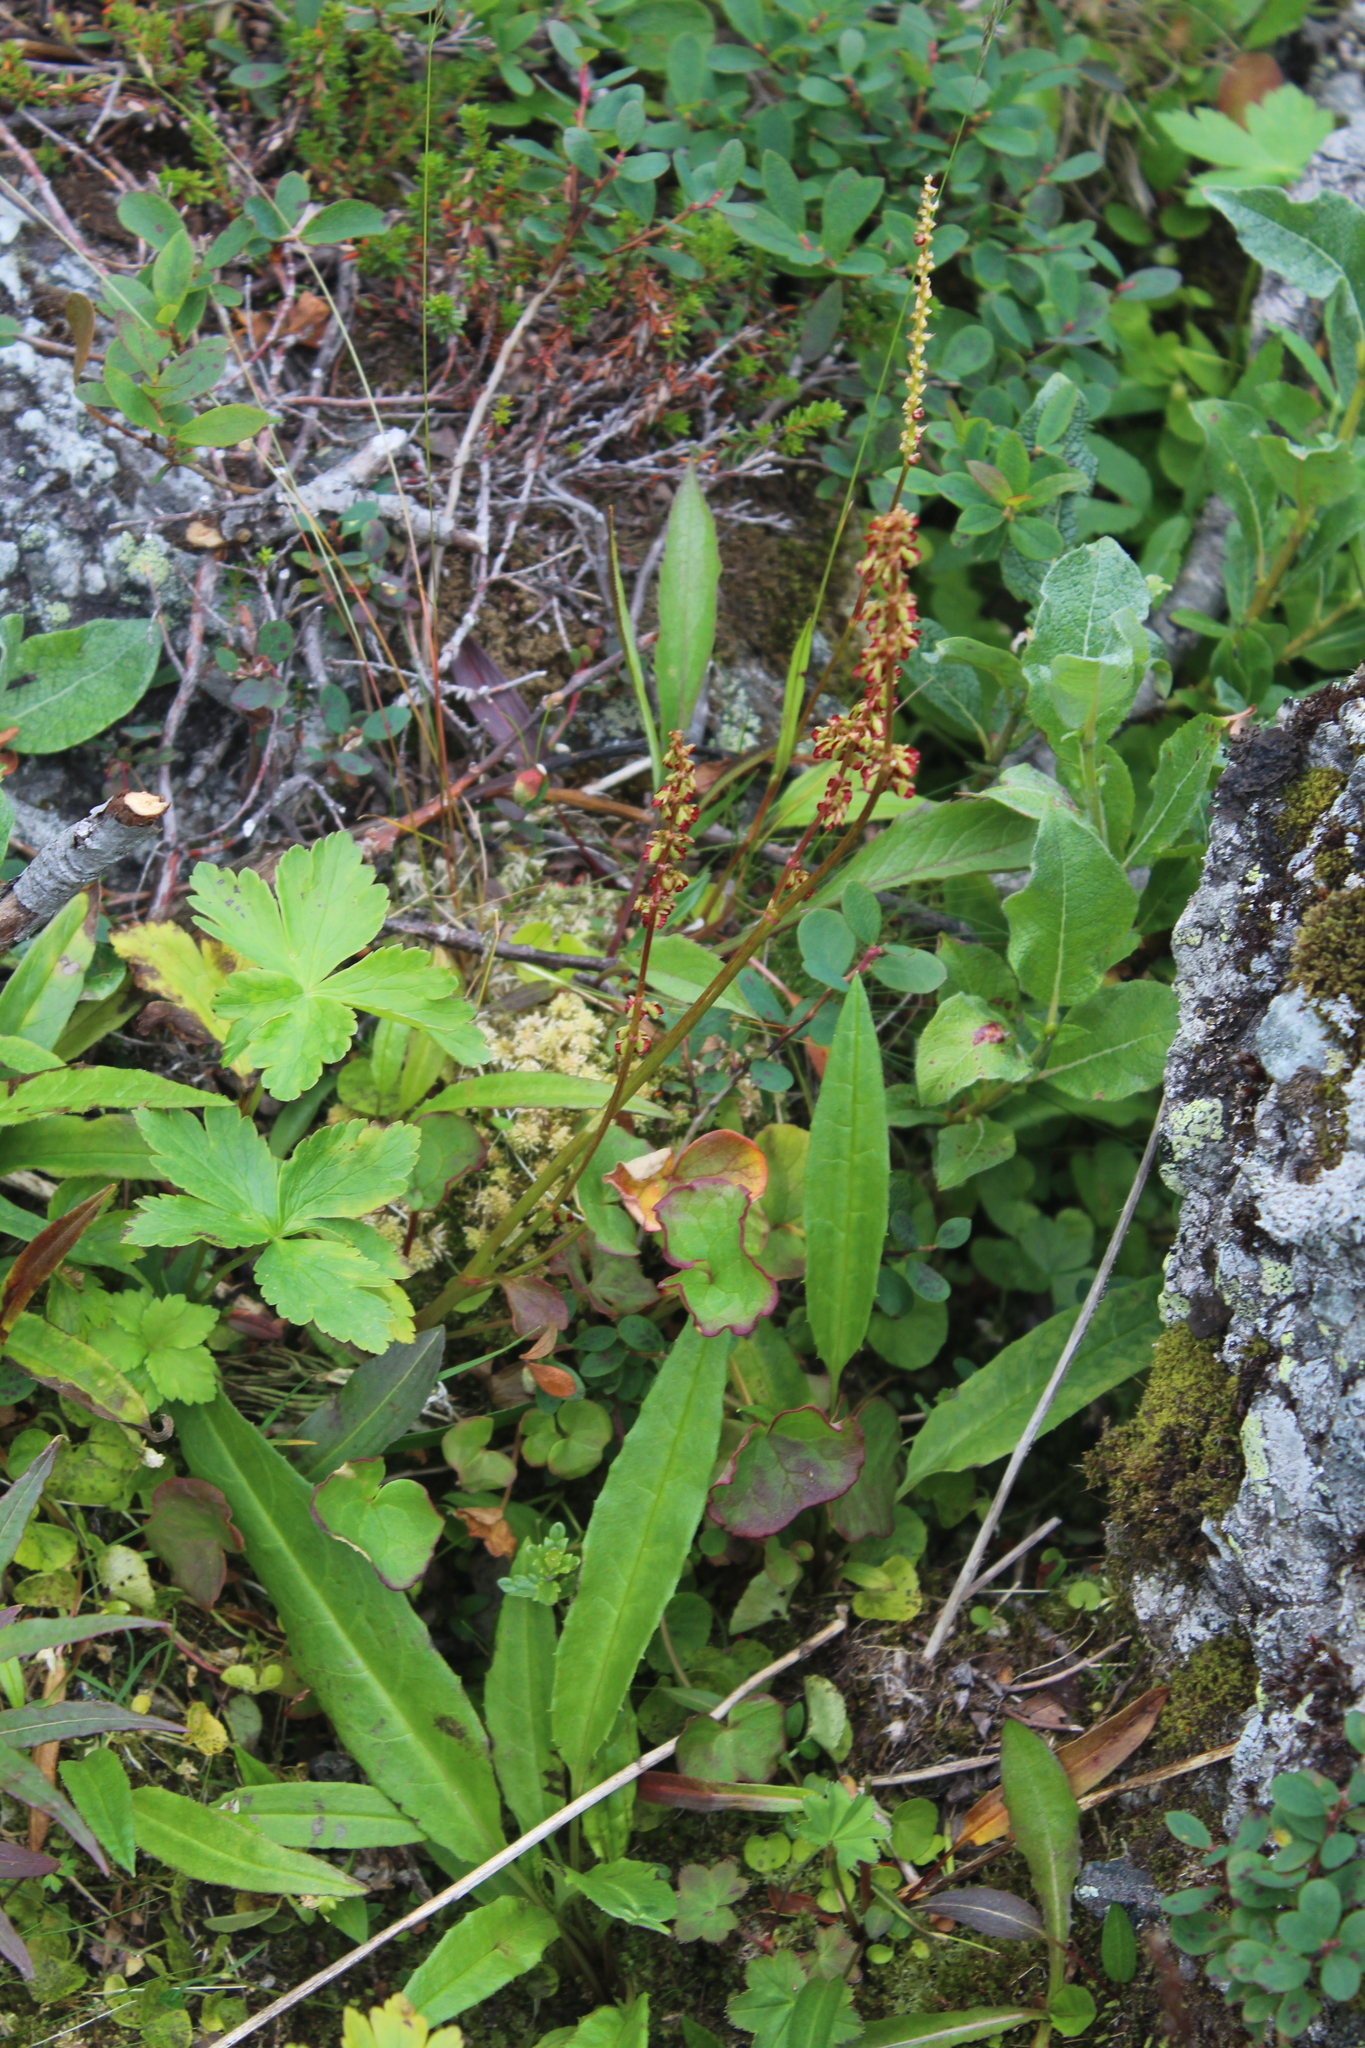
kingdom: Plantae
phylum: Tracheophyta
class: Magnoliopsida
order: Caryophyllales
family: Polygonaceae
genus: Oxyria
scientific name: Oxyria digyna
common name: Alpine mountain-sorrel
